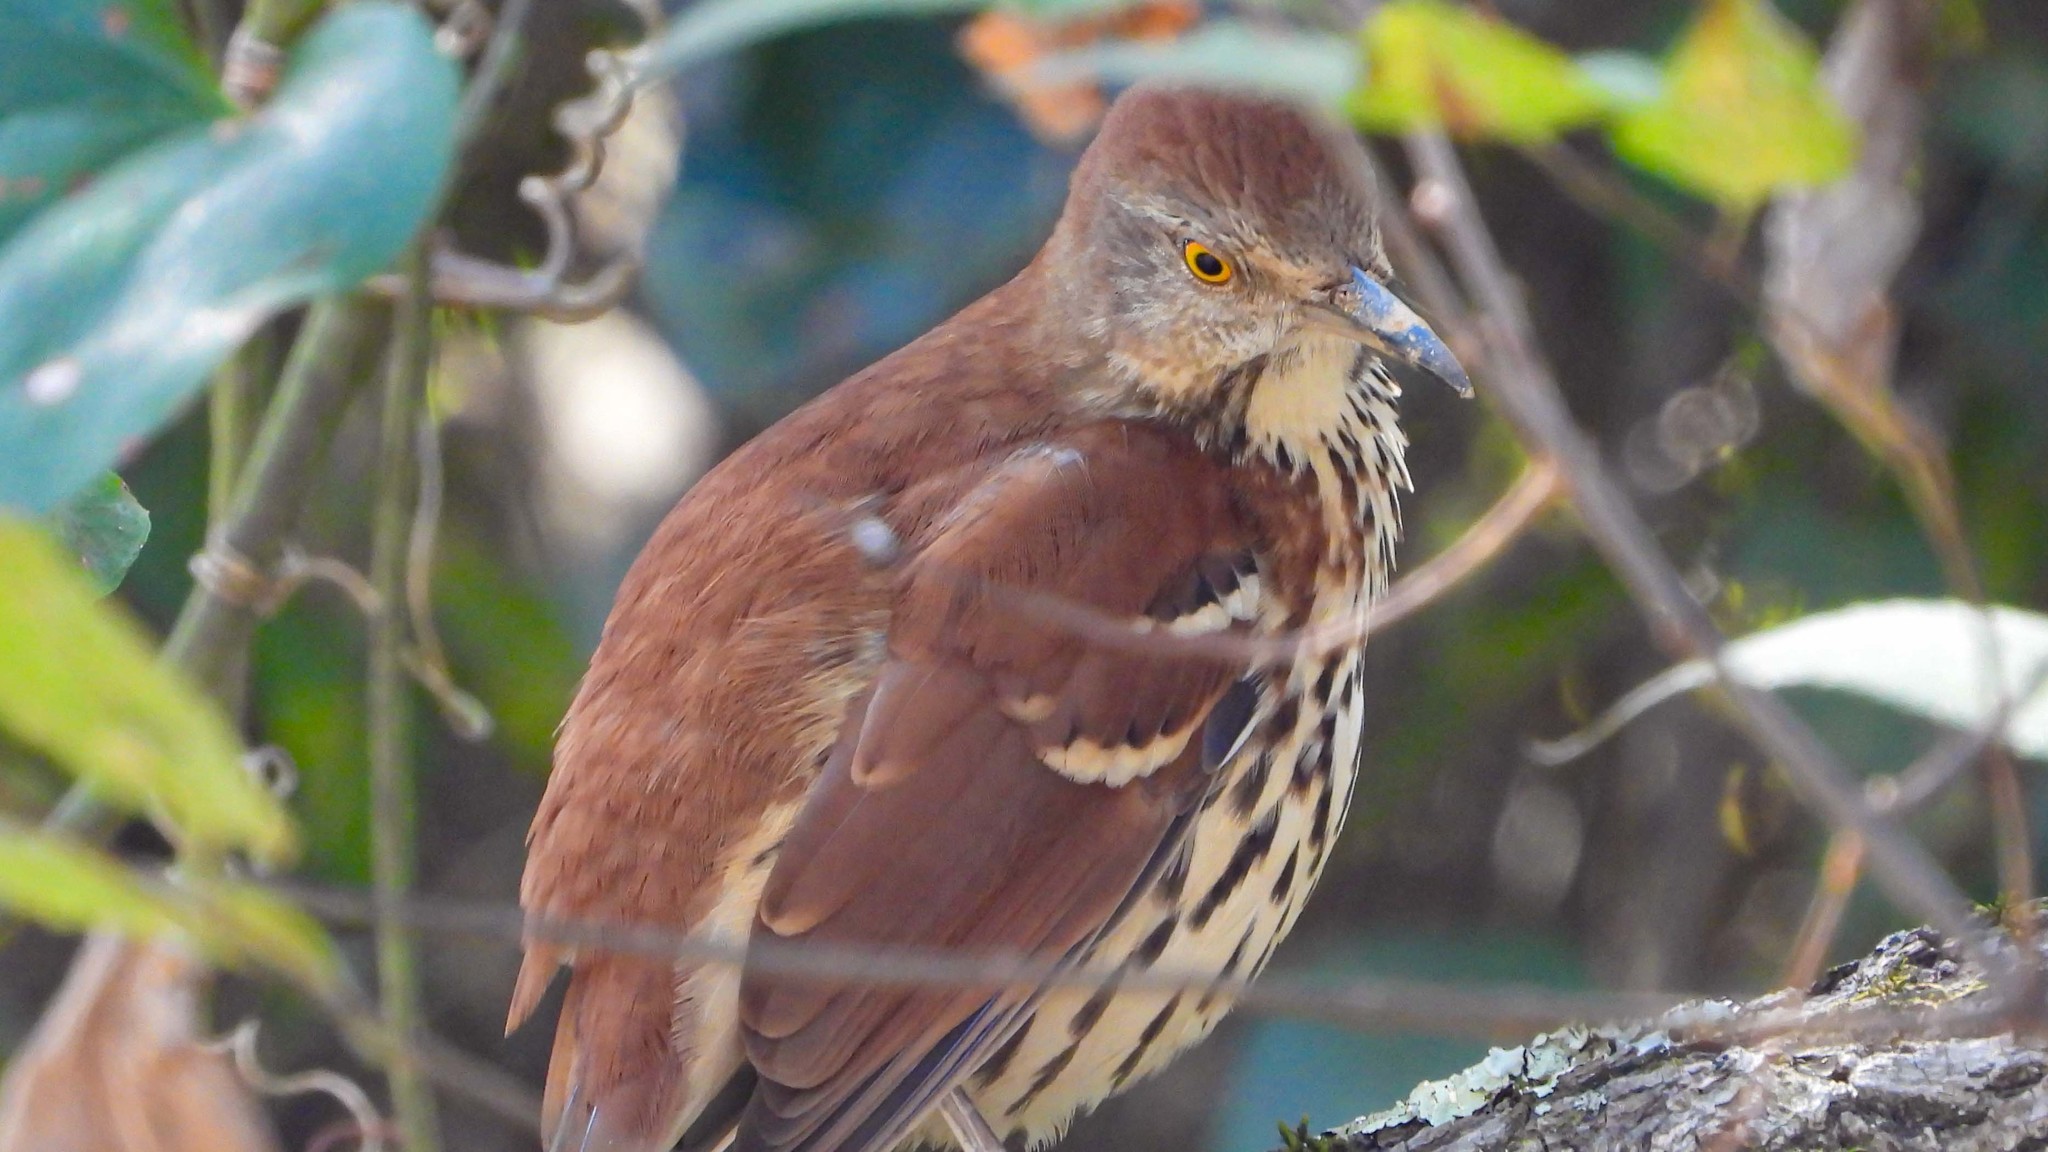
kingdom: Animalia
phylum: Chordata
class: Aves
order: Passeriformes
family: Mimidae
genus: Toxostoma
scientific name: Toxostoma rufum
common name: Brown thrasher
